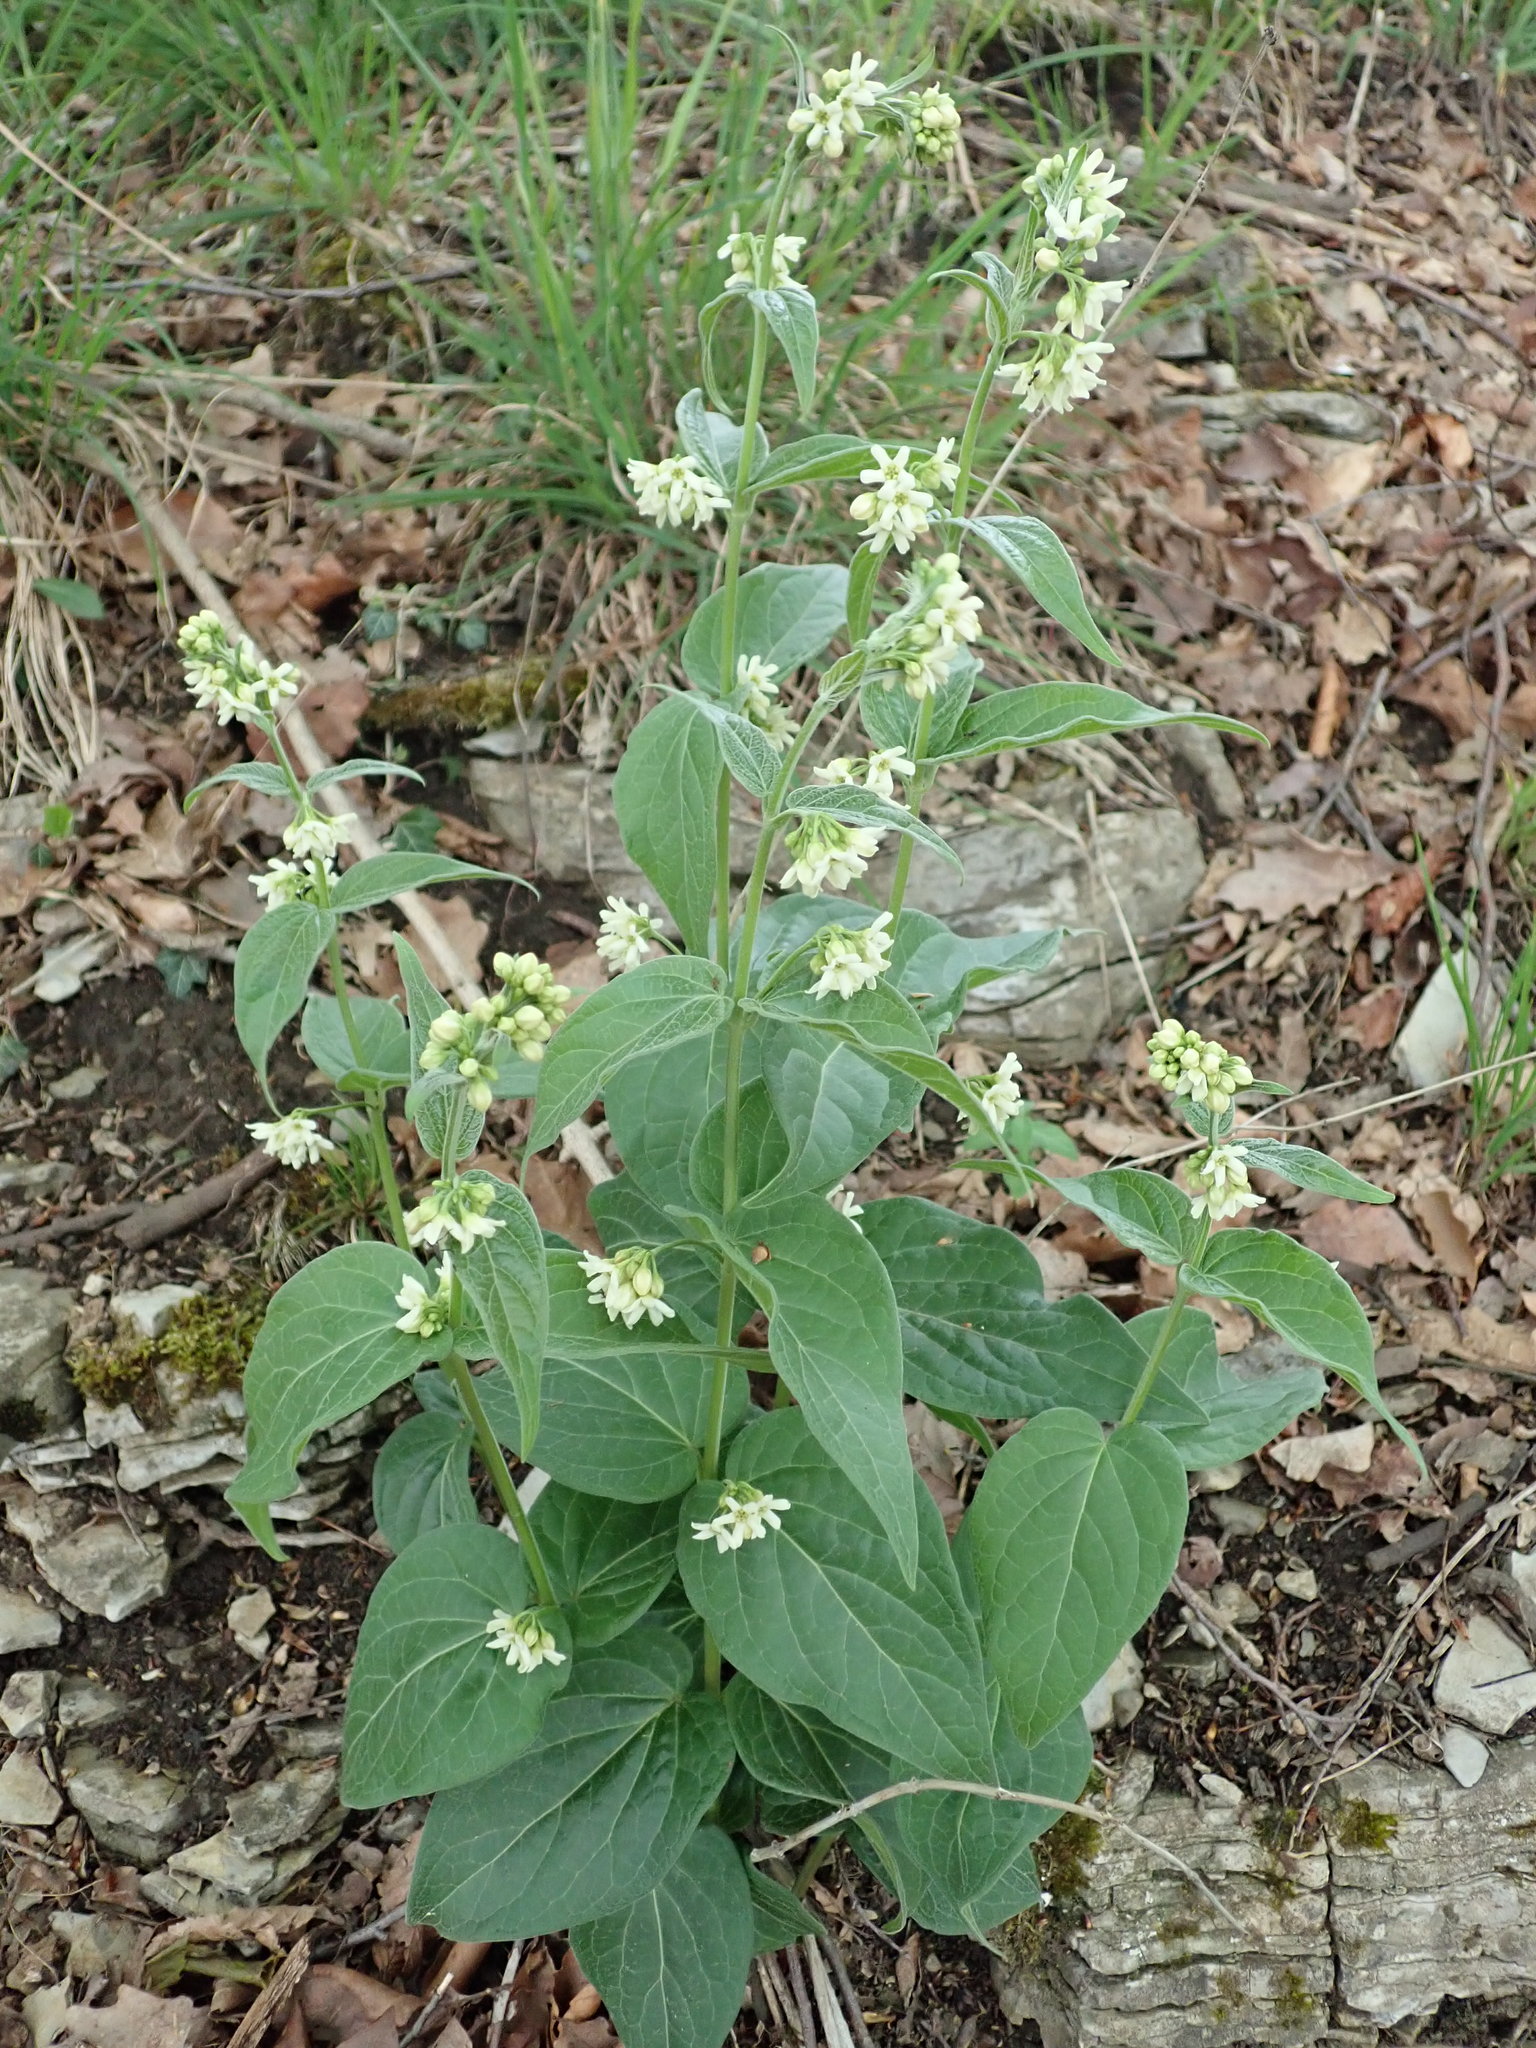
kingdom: Plantae
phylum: Tracheophyta
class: Magnoliopsida
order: Gentianales
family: Apocynaceae
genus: Vincetoxicum
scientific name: Vincetoxicum hirundinaria
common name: White swallowwort
